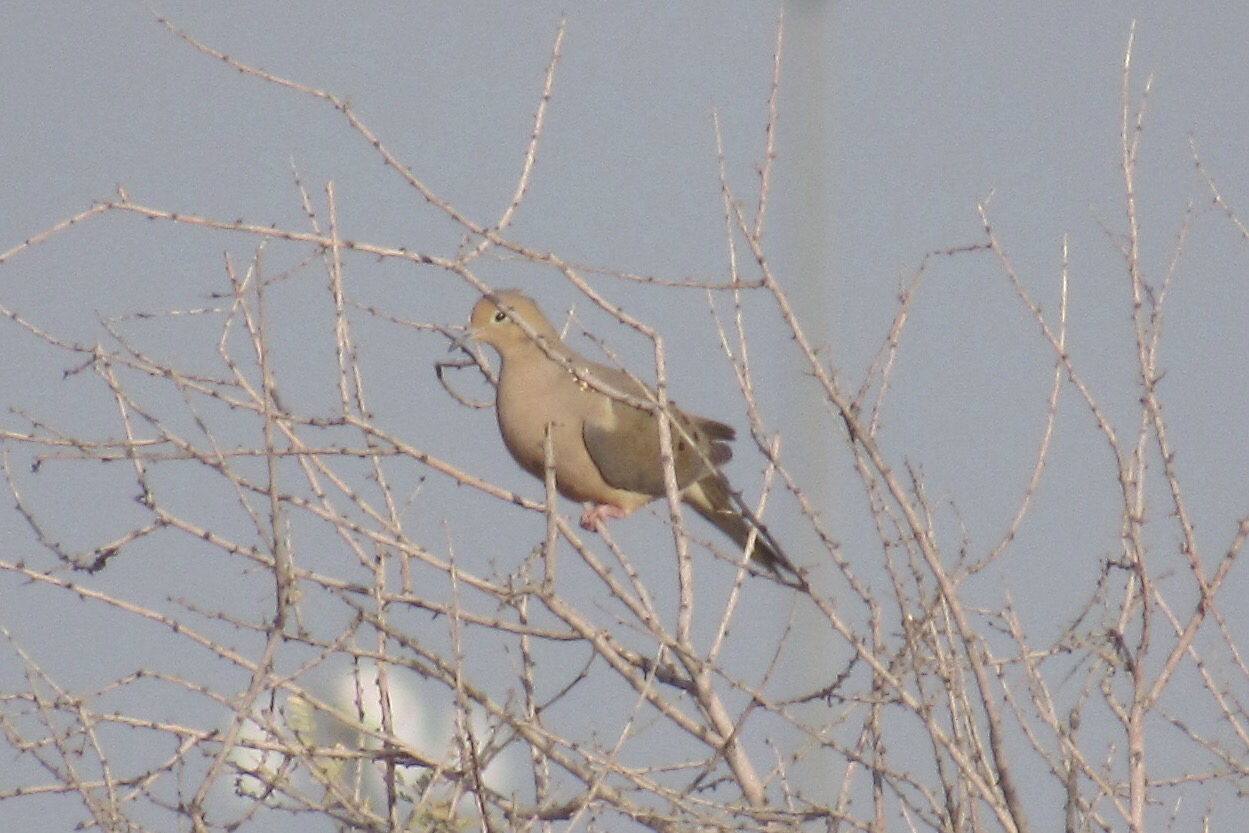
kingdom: Animalia
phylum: Chordata
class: Aves
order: Columbiformes
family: Columbidae
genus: Zenaida
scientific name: Zenaida macroura
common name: Mourning dove
